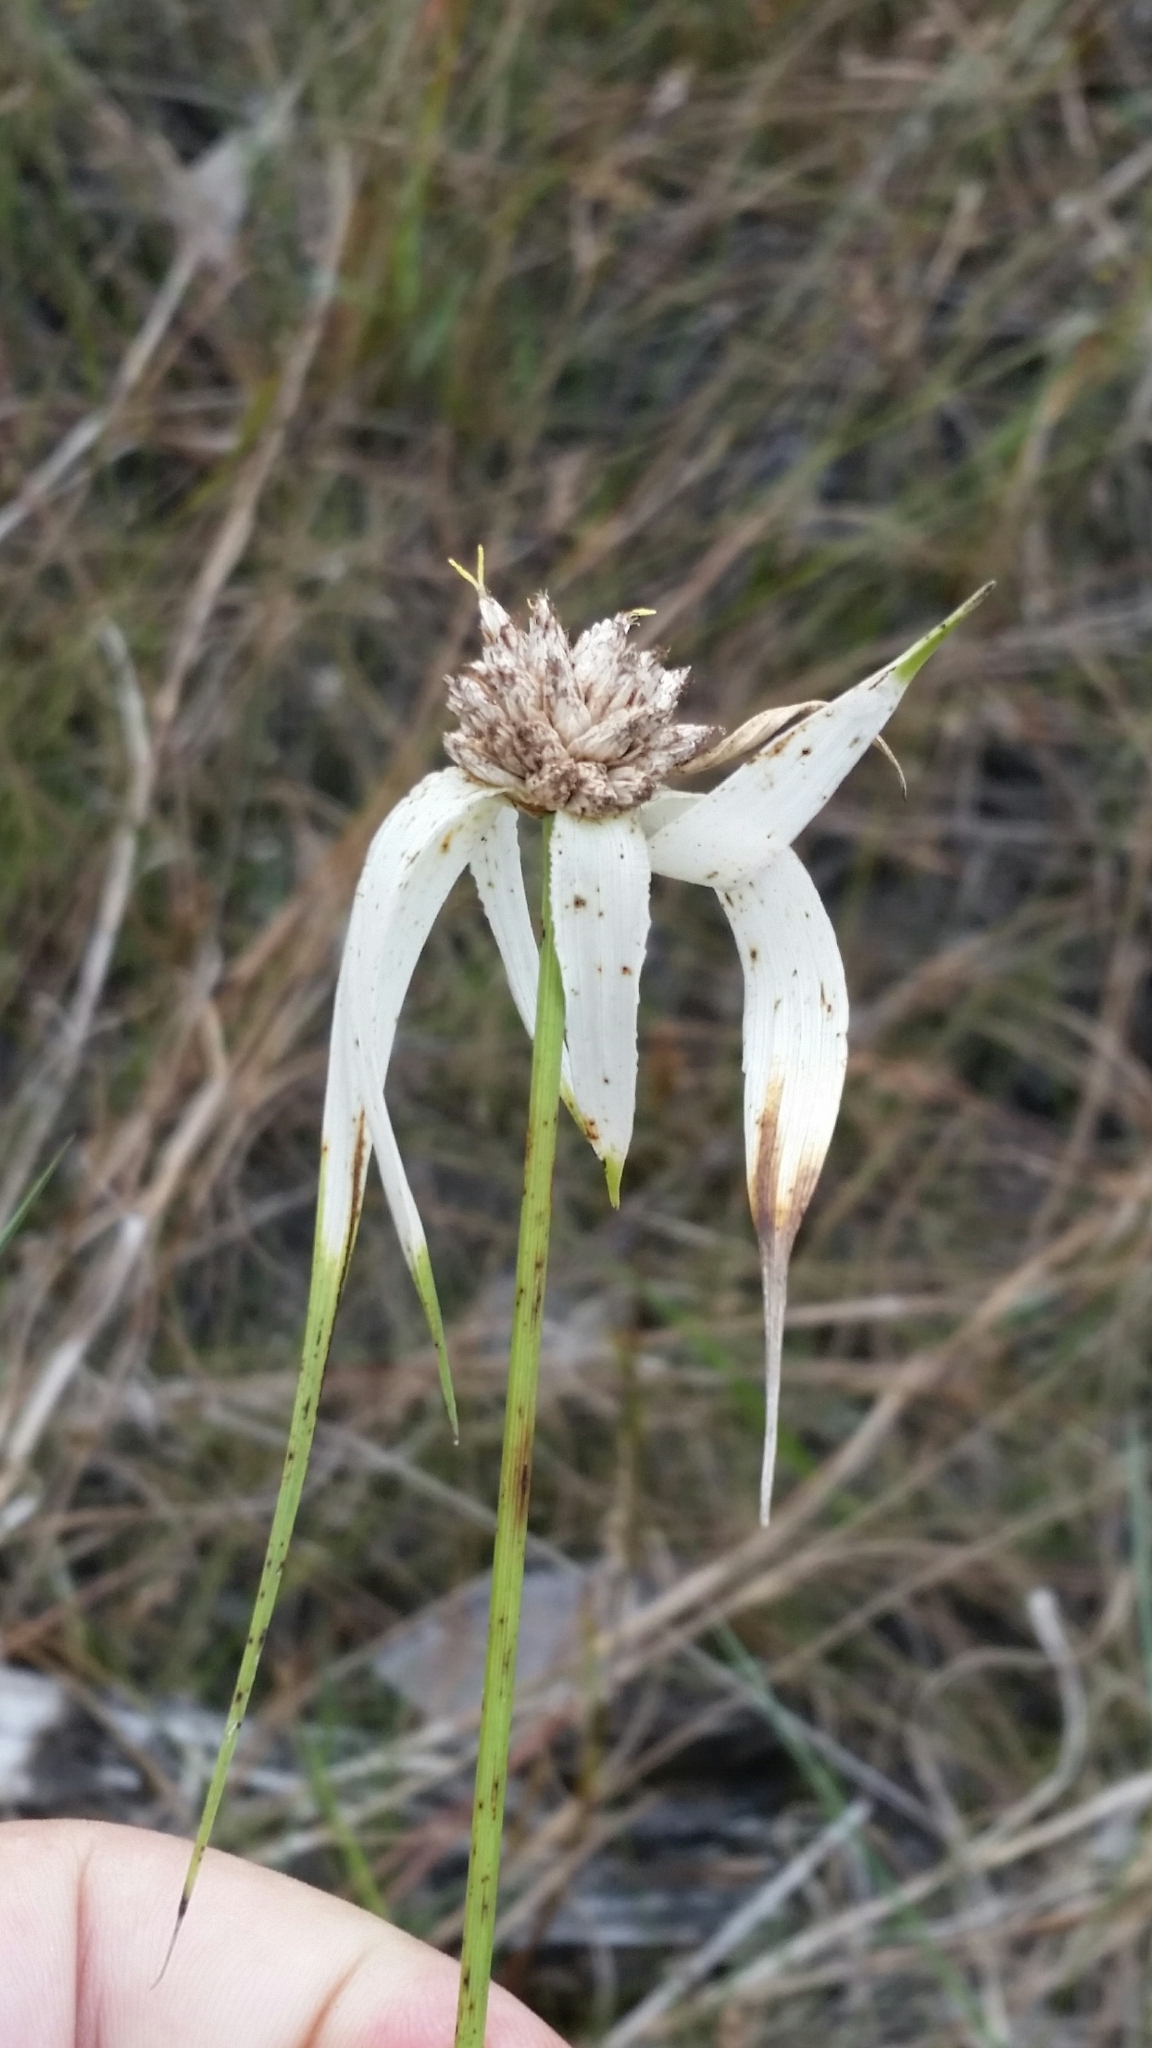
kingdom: Plantae
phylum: Tracheophyta
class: Liliopsida
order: Poales
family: Cyperaceae
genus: Rhynchospora
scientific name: Rhynchospora latifolia
